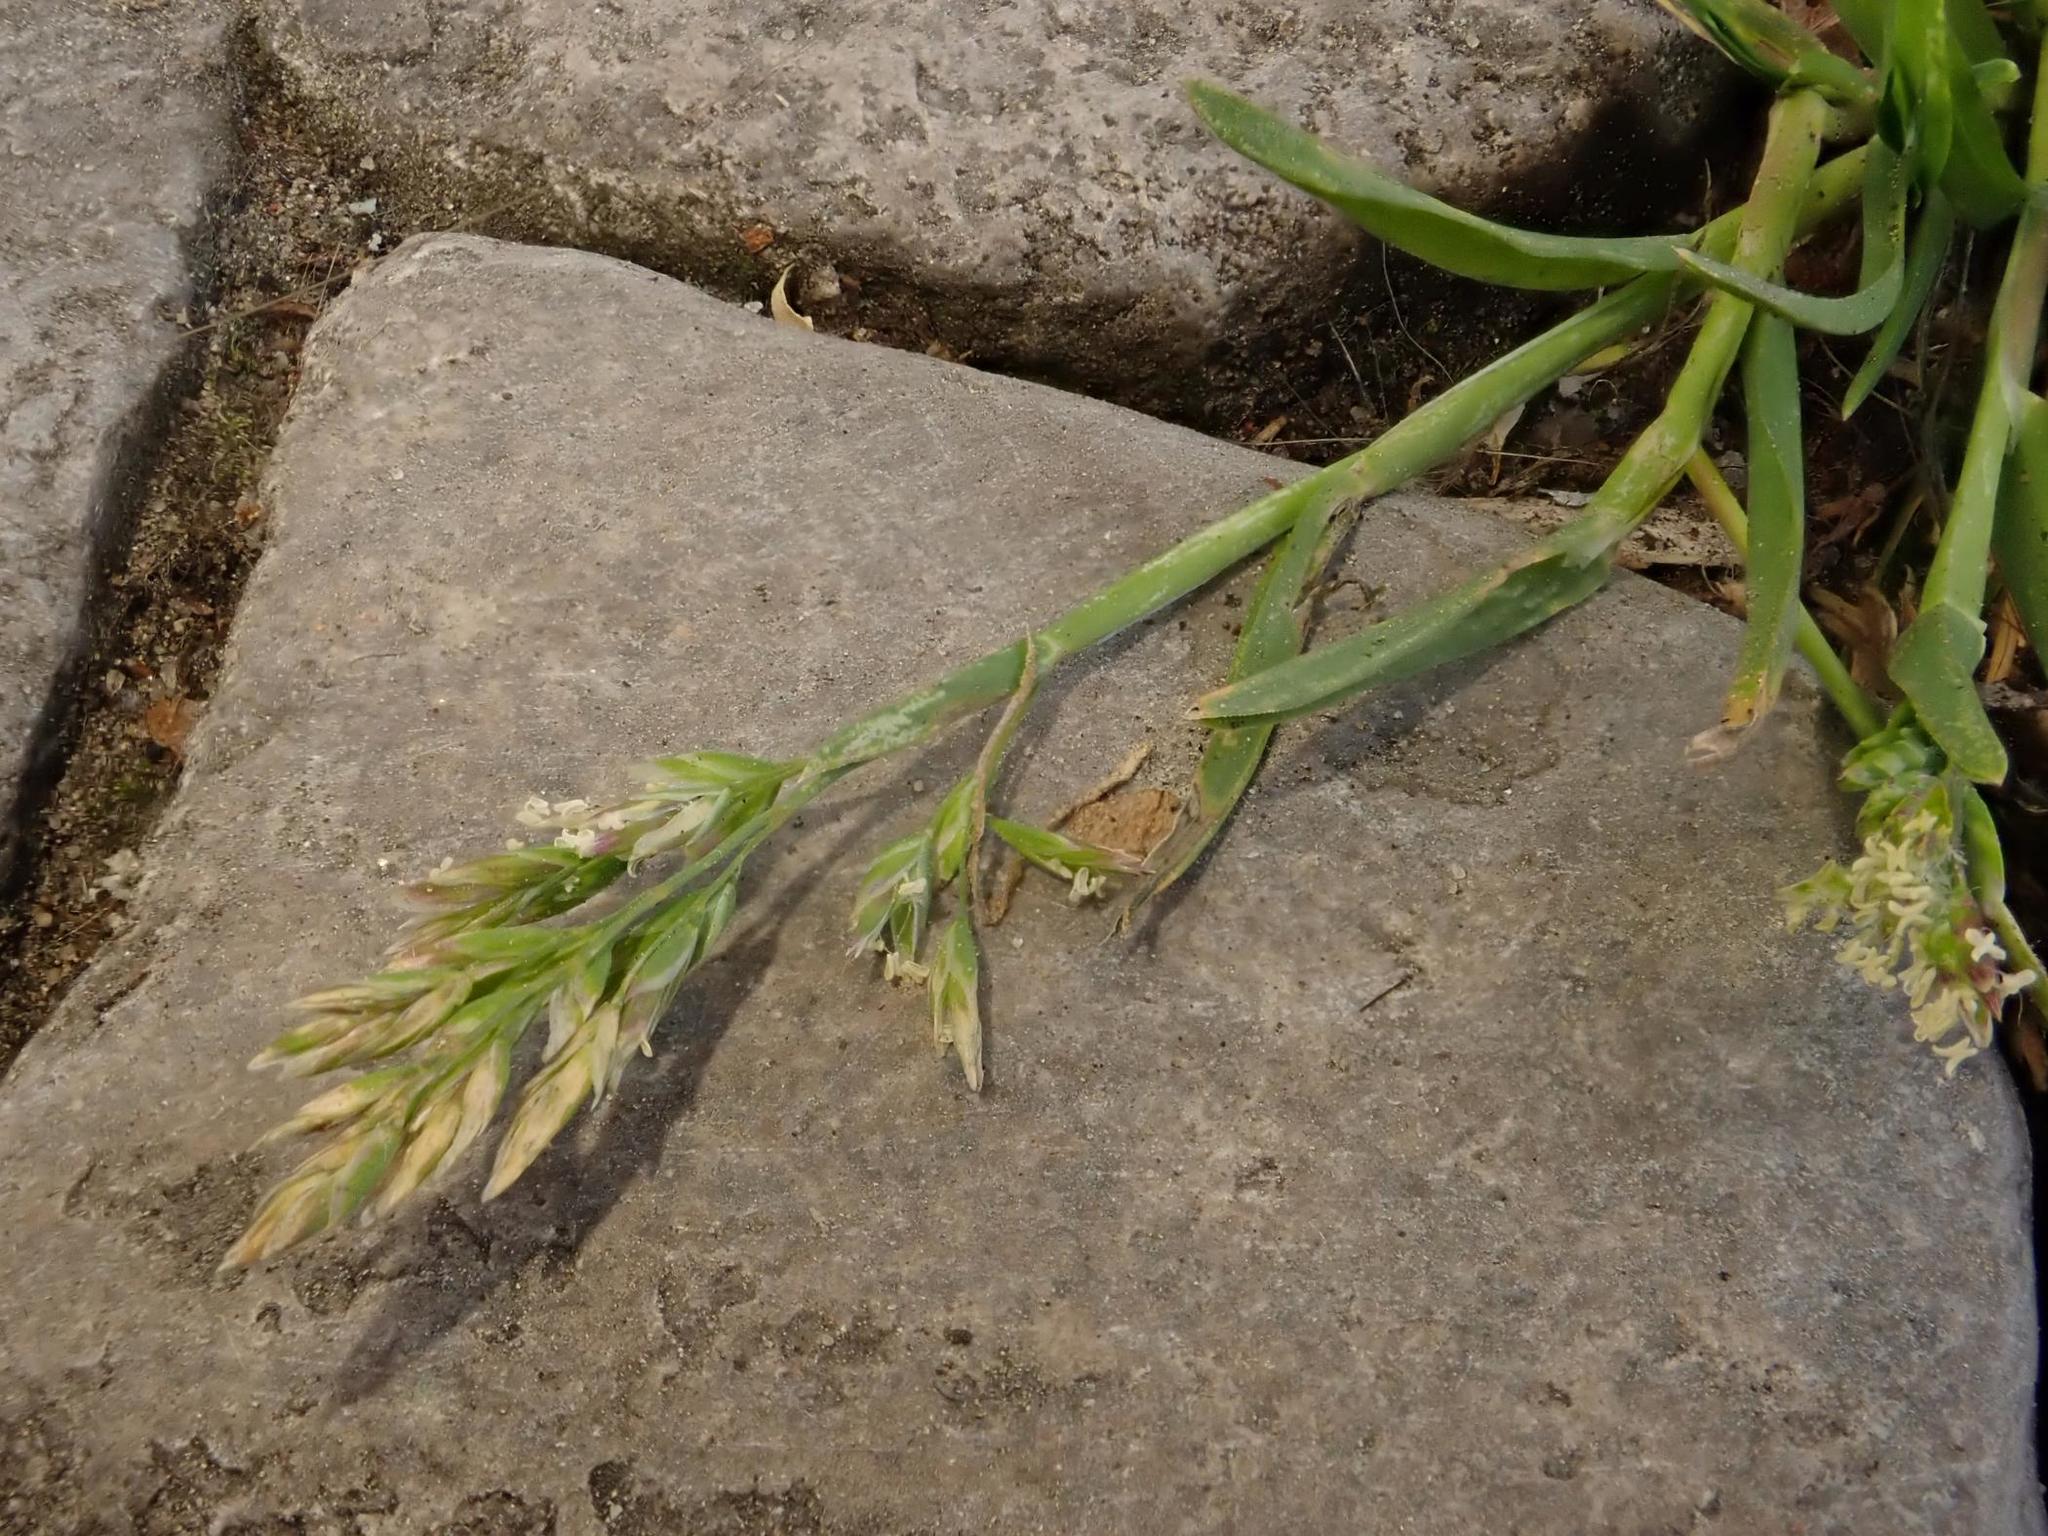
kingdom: Plantae
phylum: Tracheophyta
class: Liliopsida
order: Poales
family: Poaceae
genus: Poa
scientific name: Poa annua
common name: Annual bluegrass
